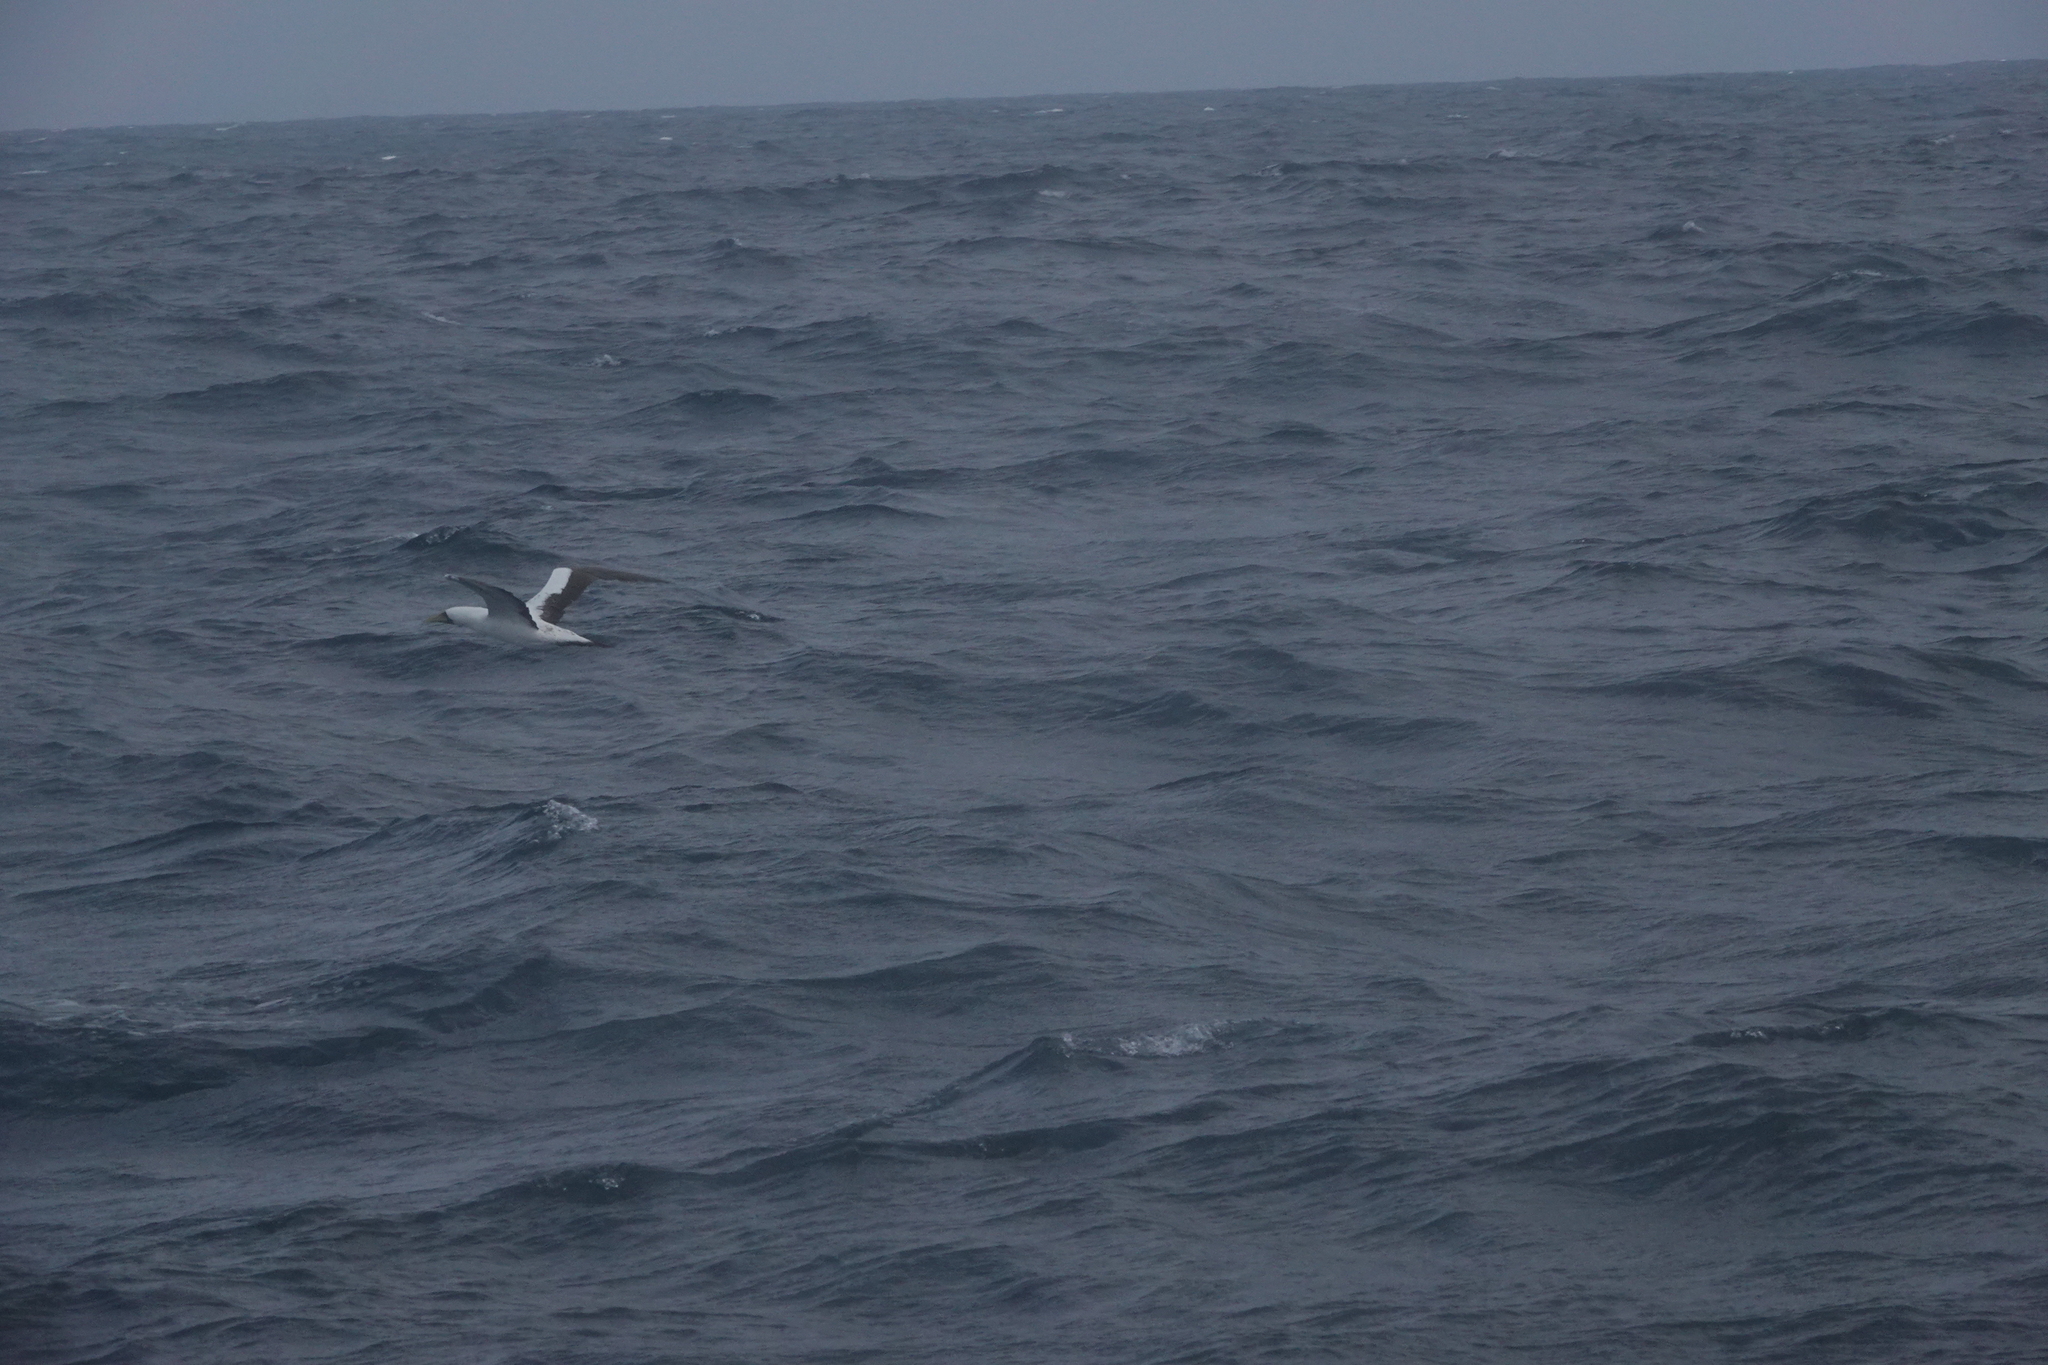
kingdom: Animalia
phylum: Chordata
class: Aves
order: Suliformes
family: Sulidae
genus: Sula
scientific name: Sula dactylatra
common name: Masked booby
